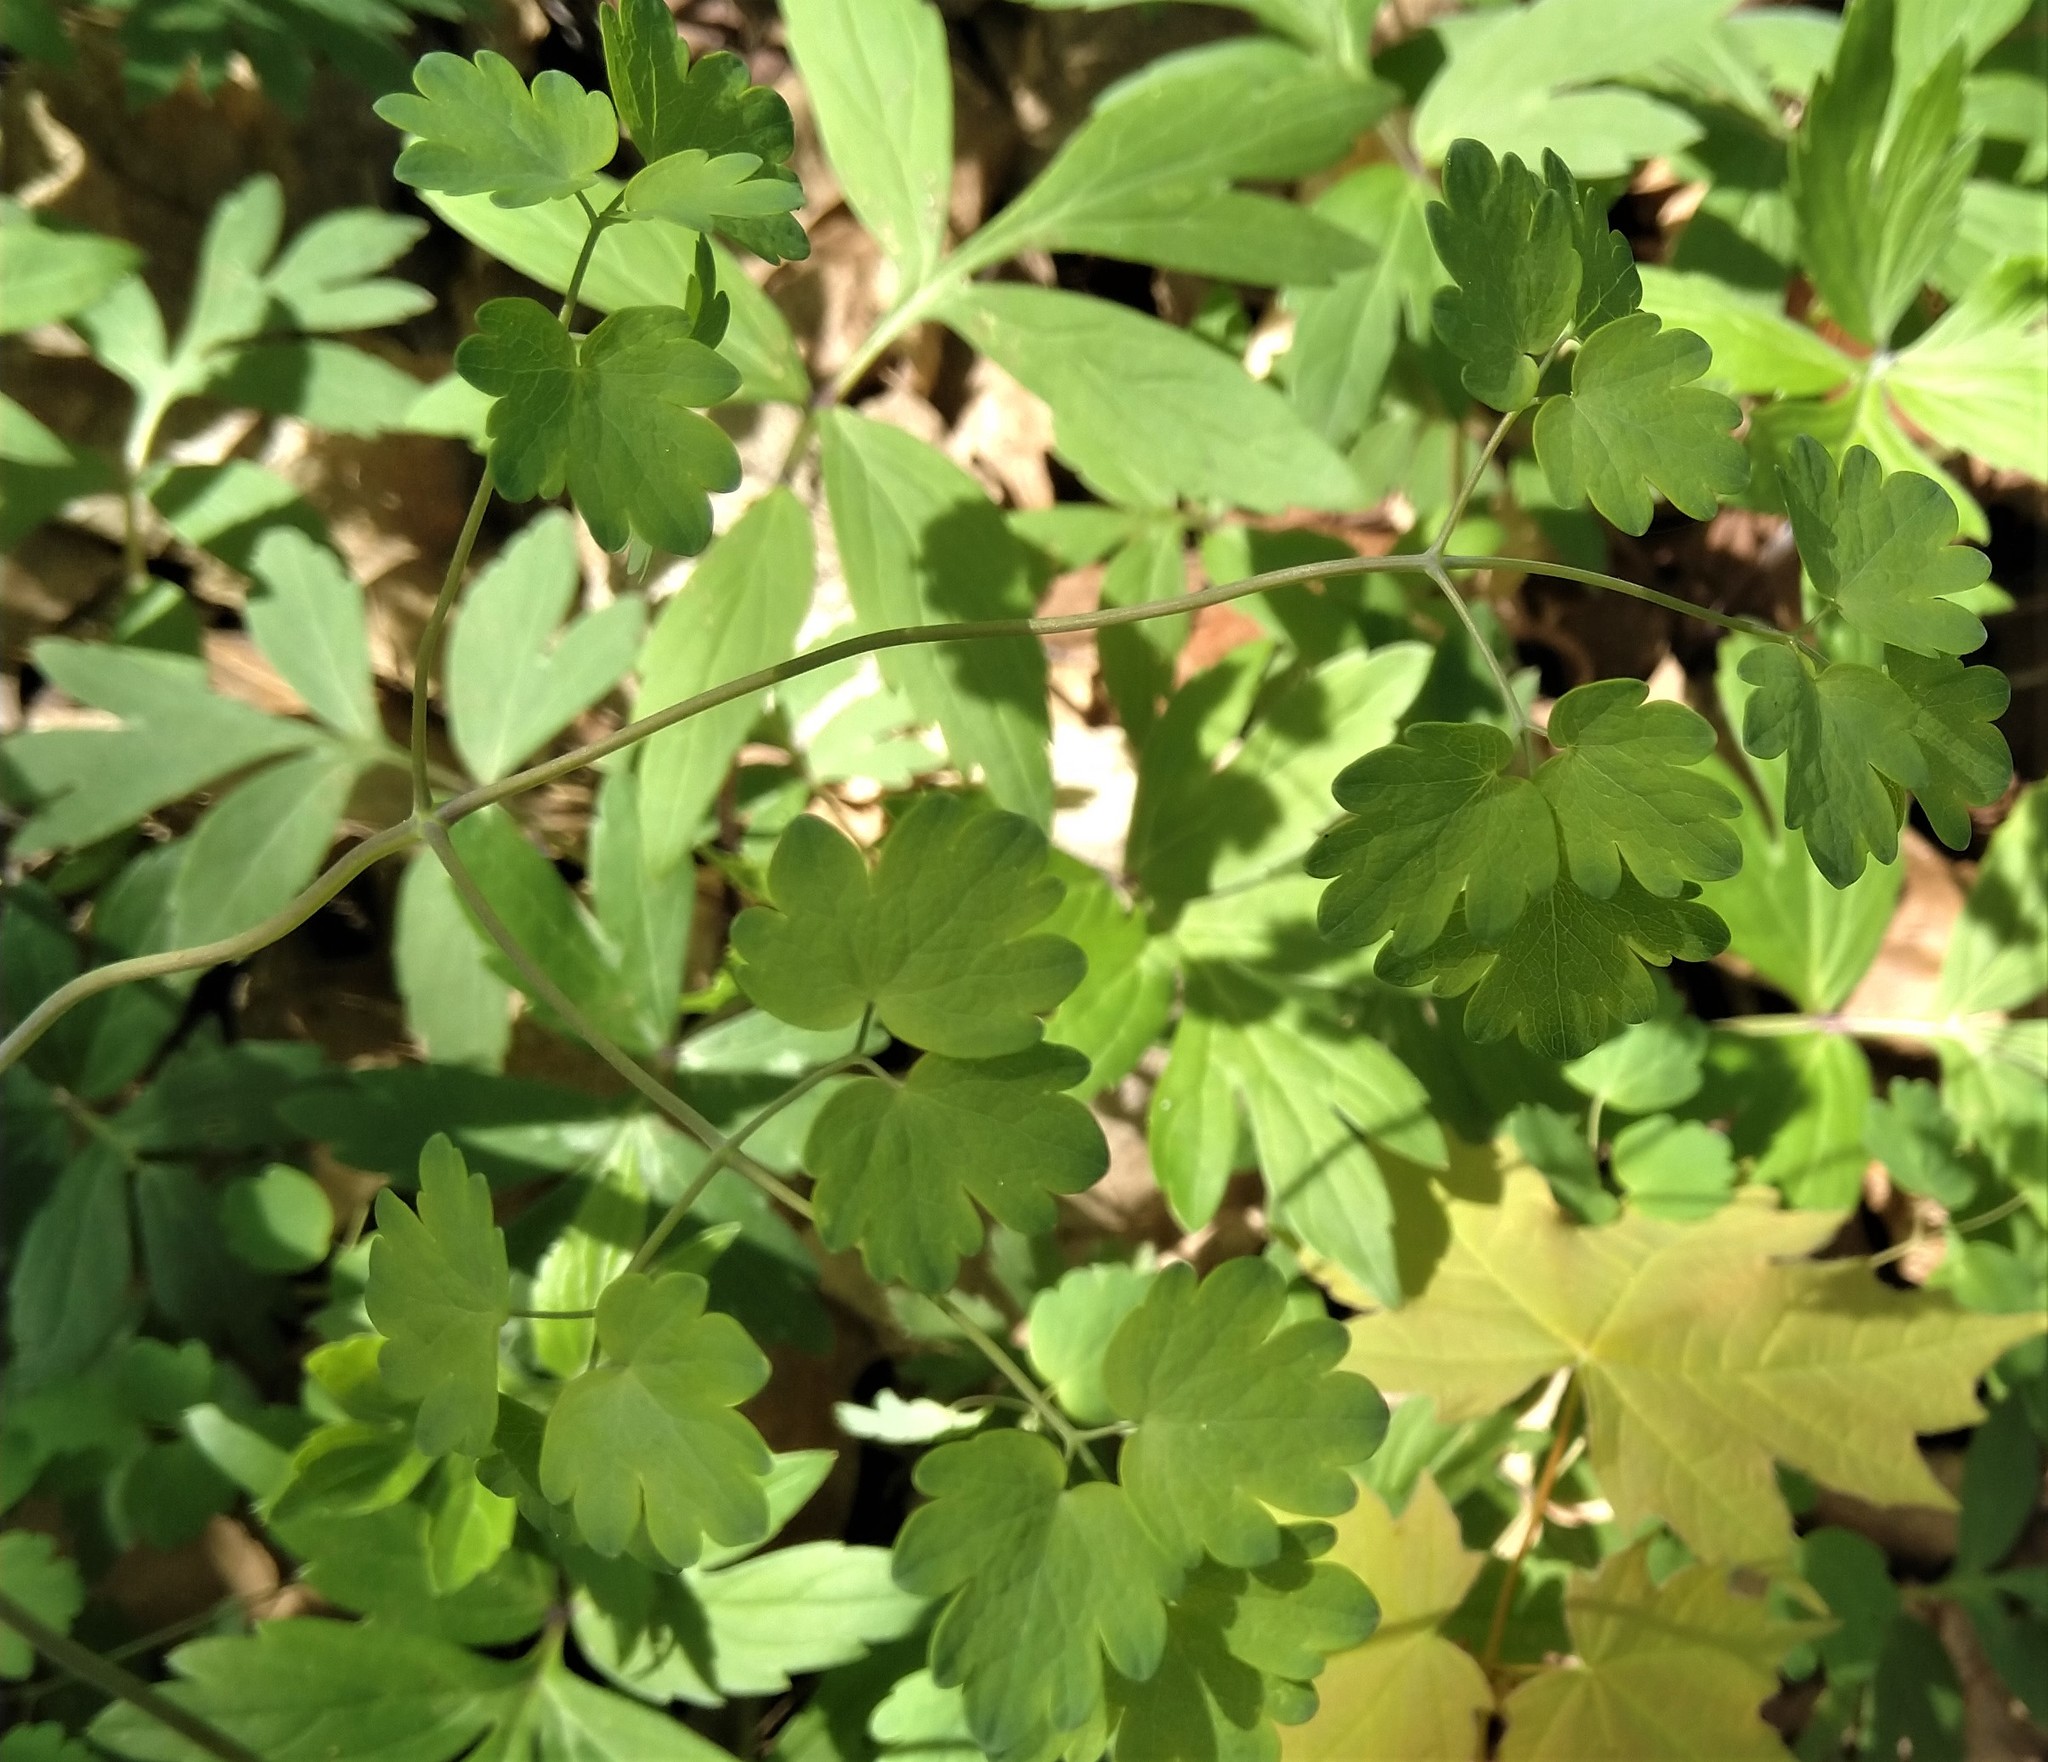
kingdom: Plantae
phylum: Tracheophyta
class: Magnoliopsida
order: Ranunculales
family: Ranunculaceae
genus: Thalictrum
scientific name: Thalictrum dioicum
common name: Early meadow-rue
